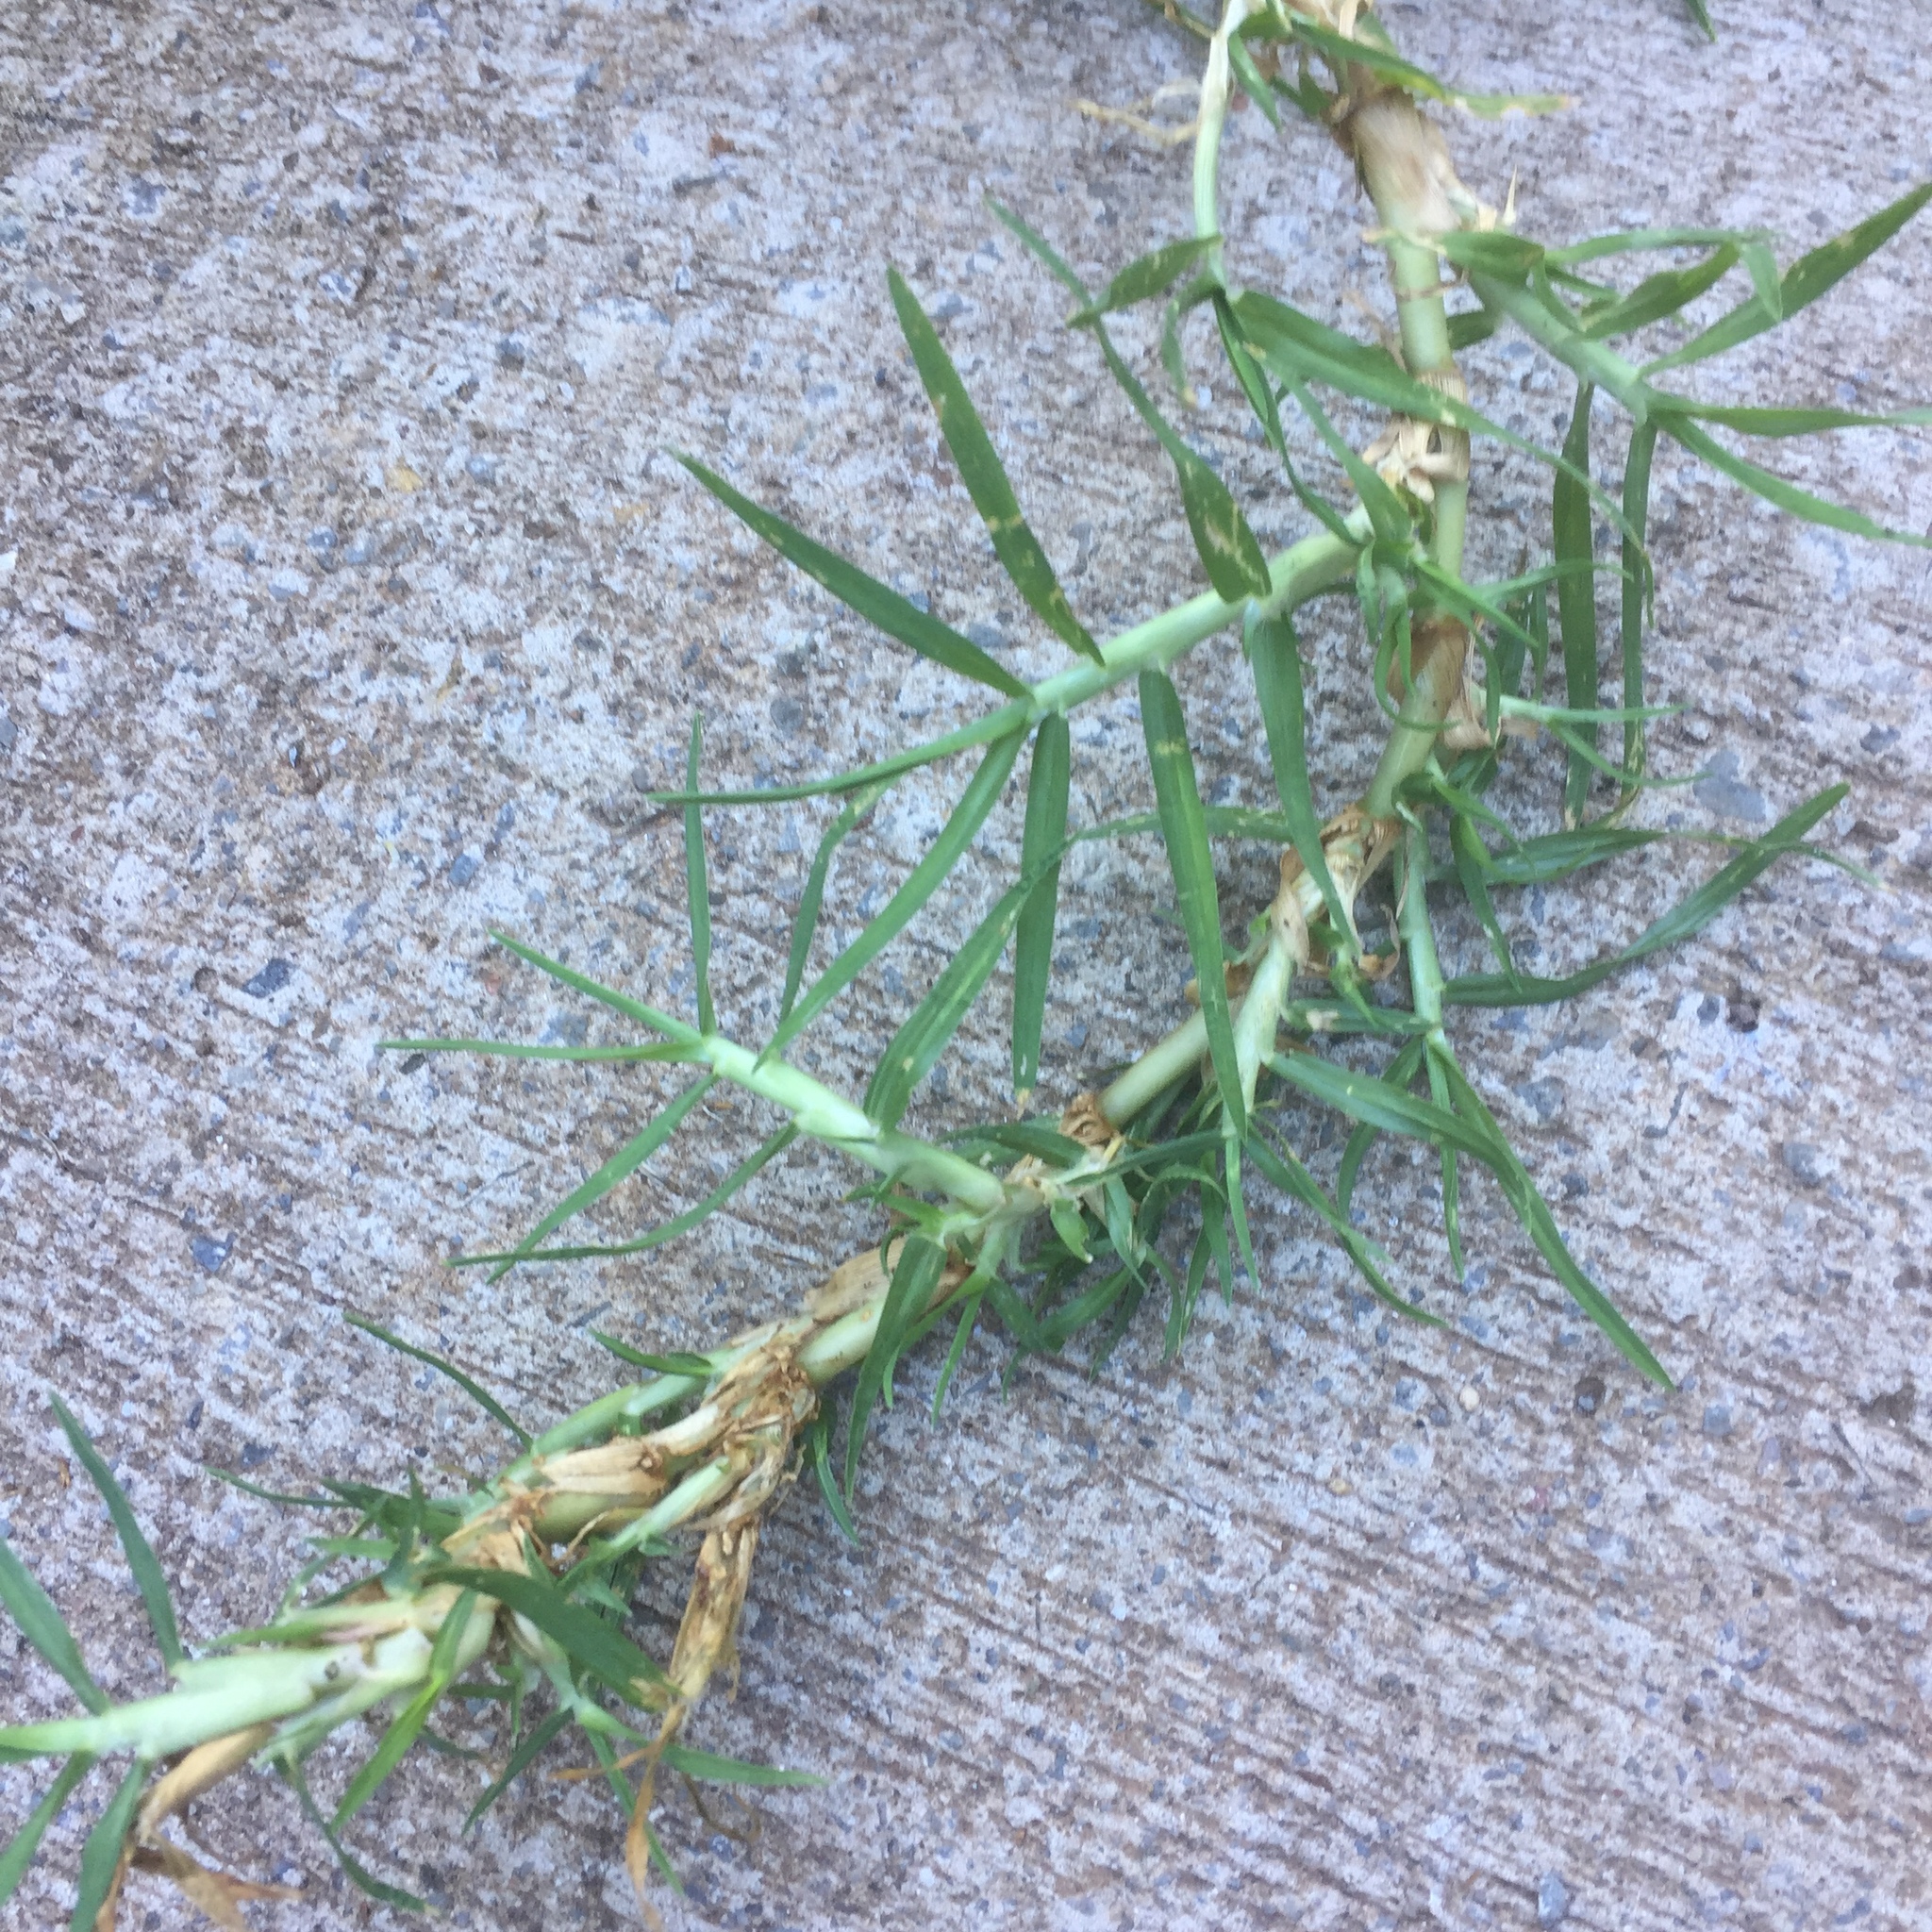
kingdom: Plantae
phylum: Tracheophyta
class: Liliopsida
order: Poales
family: Poaceae
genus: Cynodon
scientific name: Cynodon dactylon
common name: Bermuda grass
